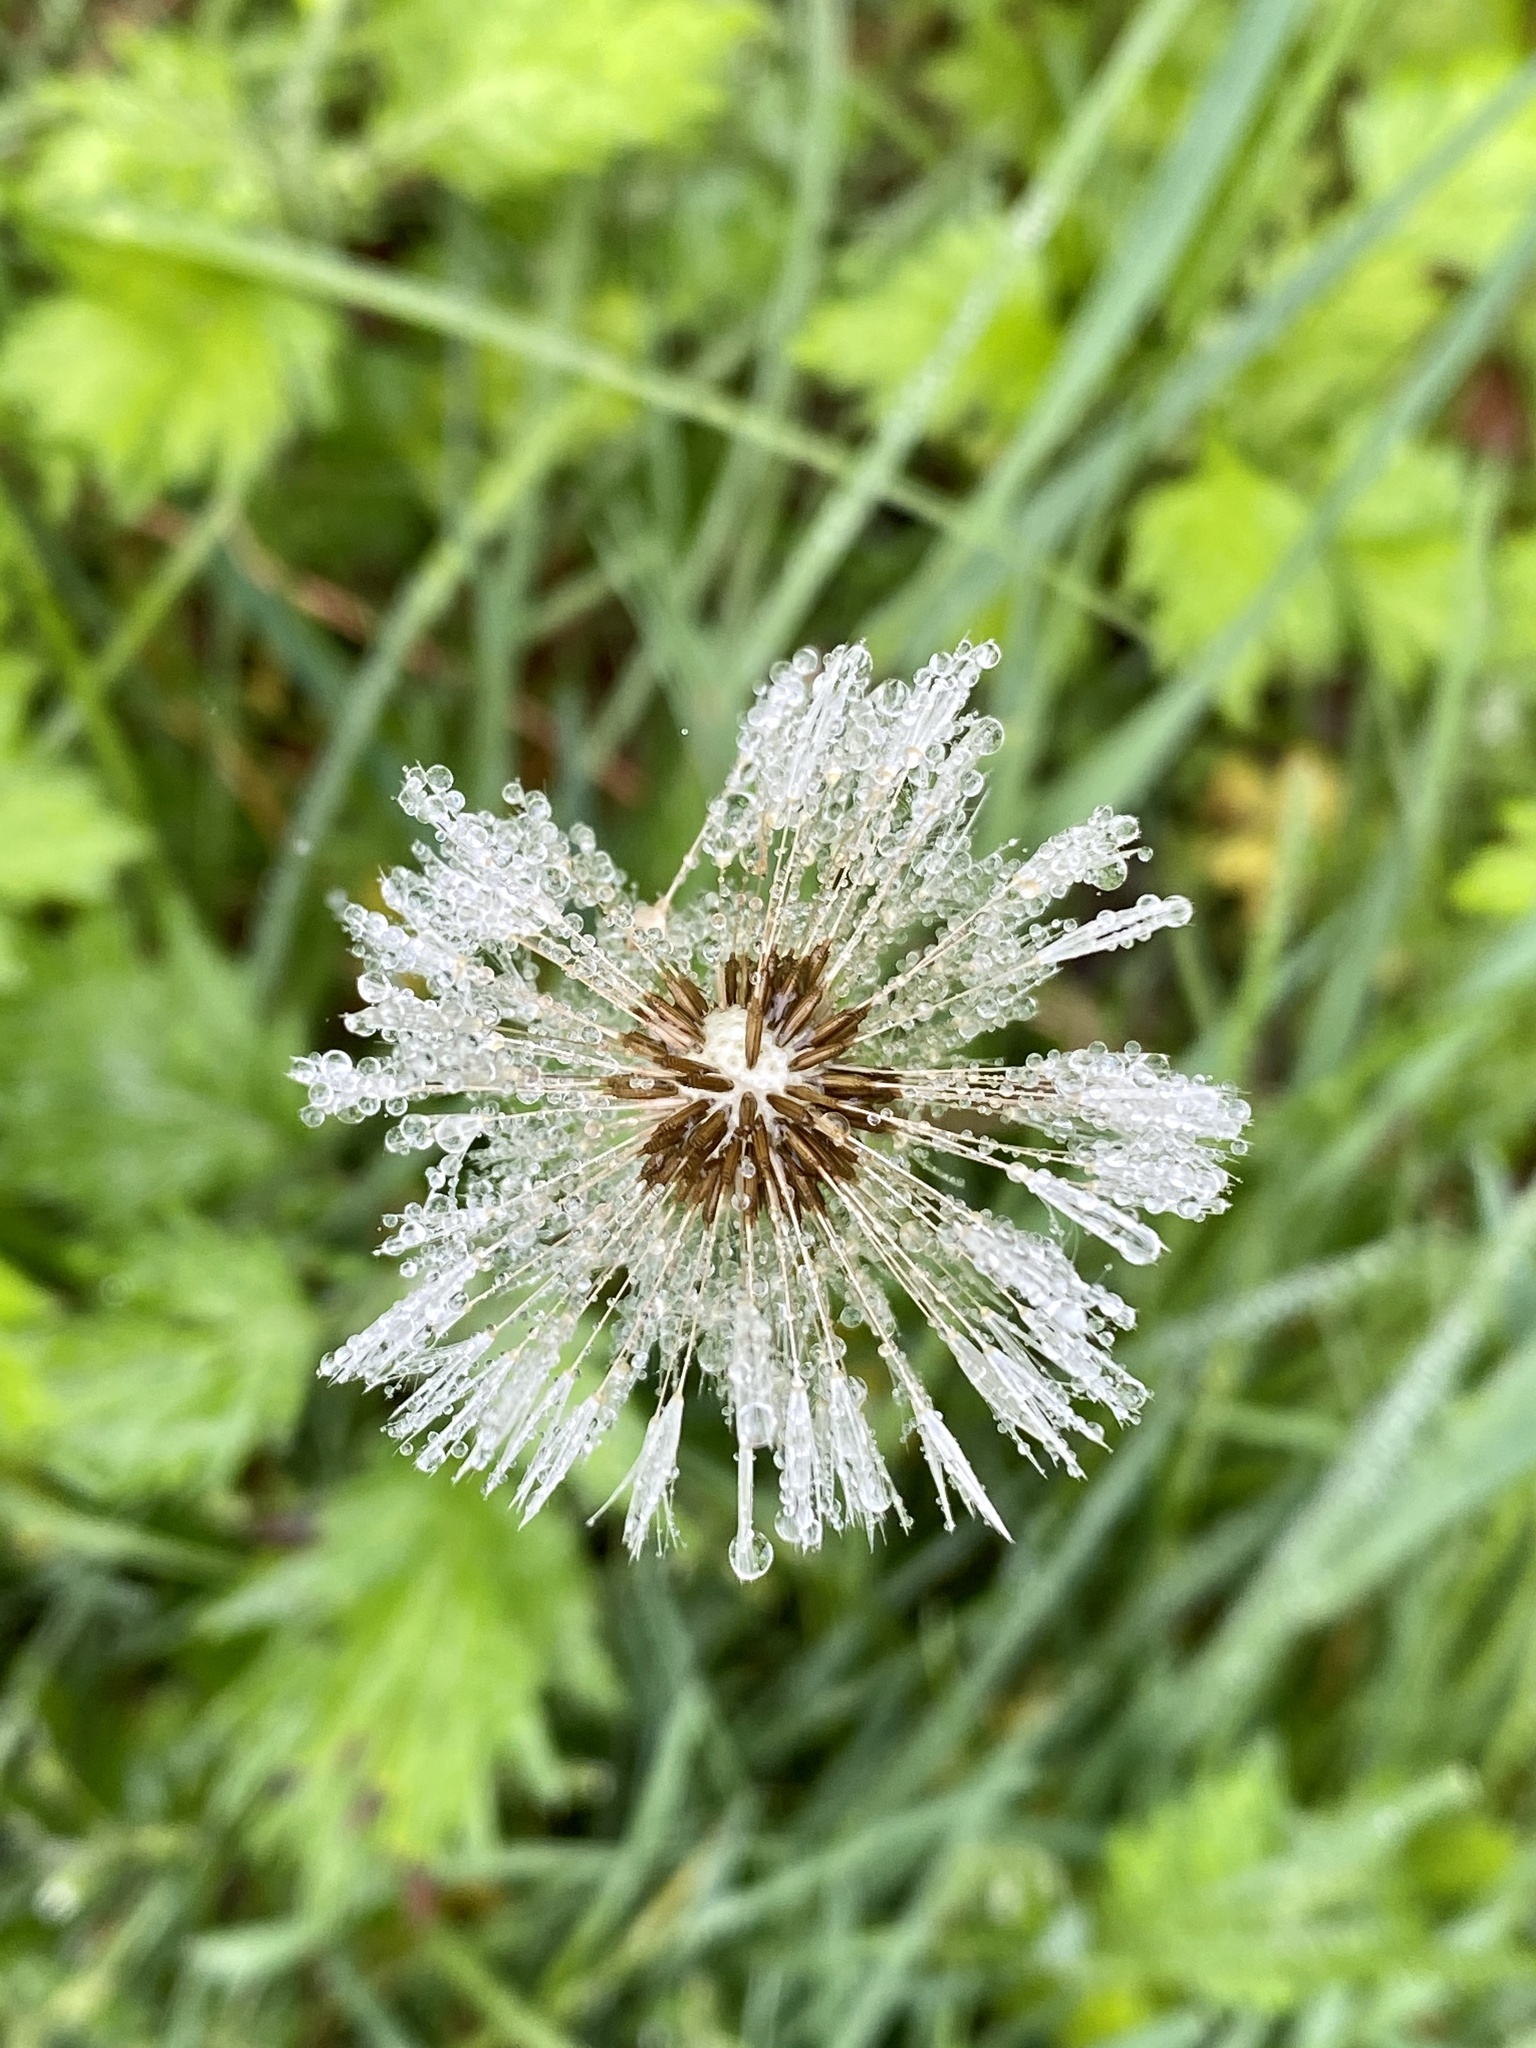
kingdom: Plantae
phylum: Tracheophyta
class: Magnoliopsida
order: Asterales
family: Asteraceae
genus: Taraxacum
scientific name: Taraxacum officinale
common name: Common dandelion
